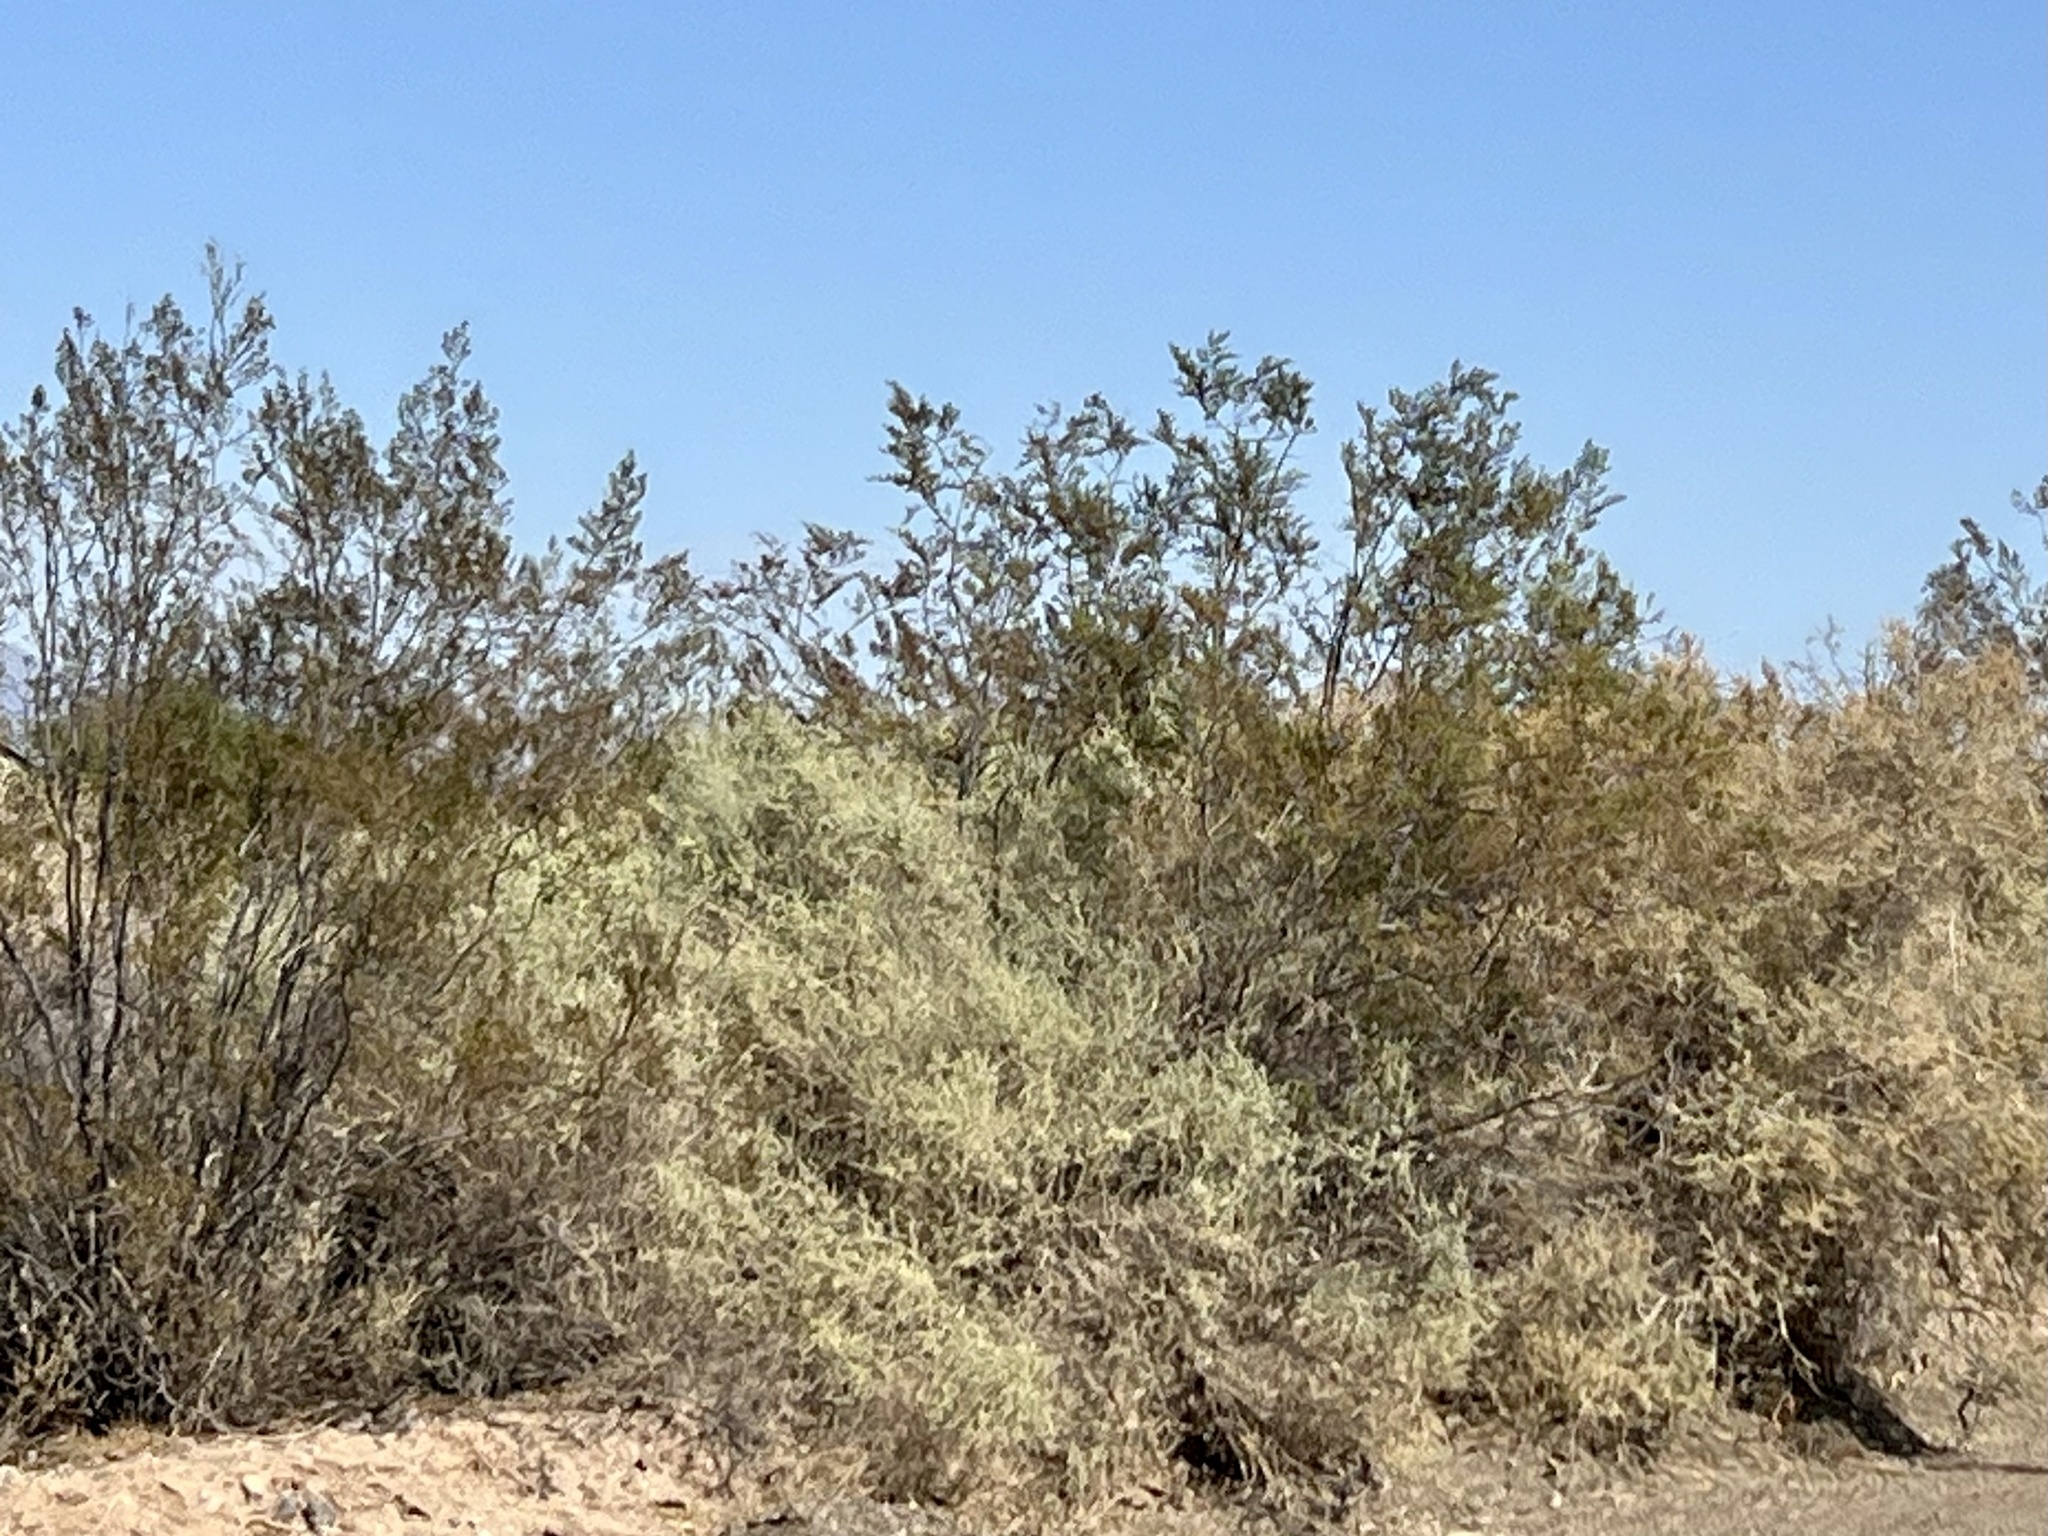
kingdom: Plantae
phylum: Tracheophyta
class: Magnoliopsida
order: Zygophyllales
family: Zygophyllaceae
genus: Larrea
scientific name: Larrea tridentata
